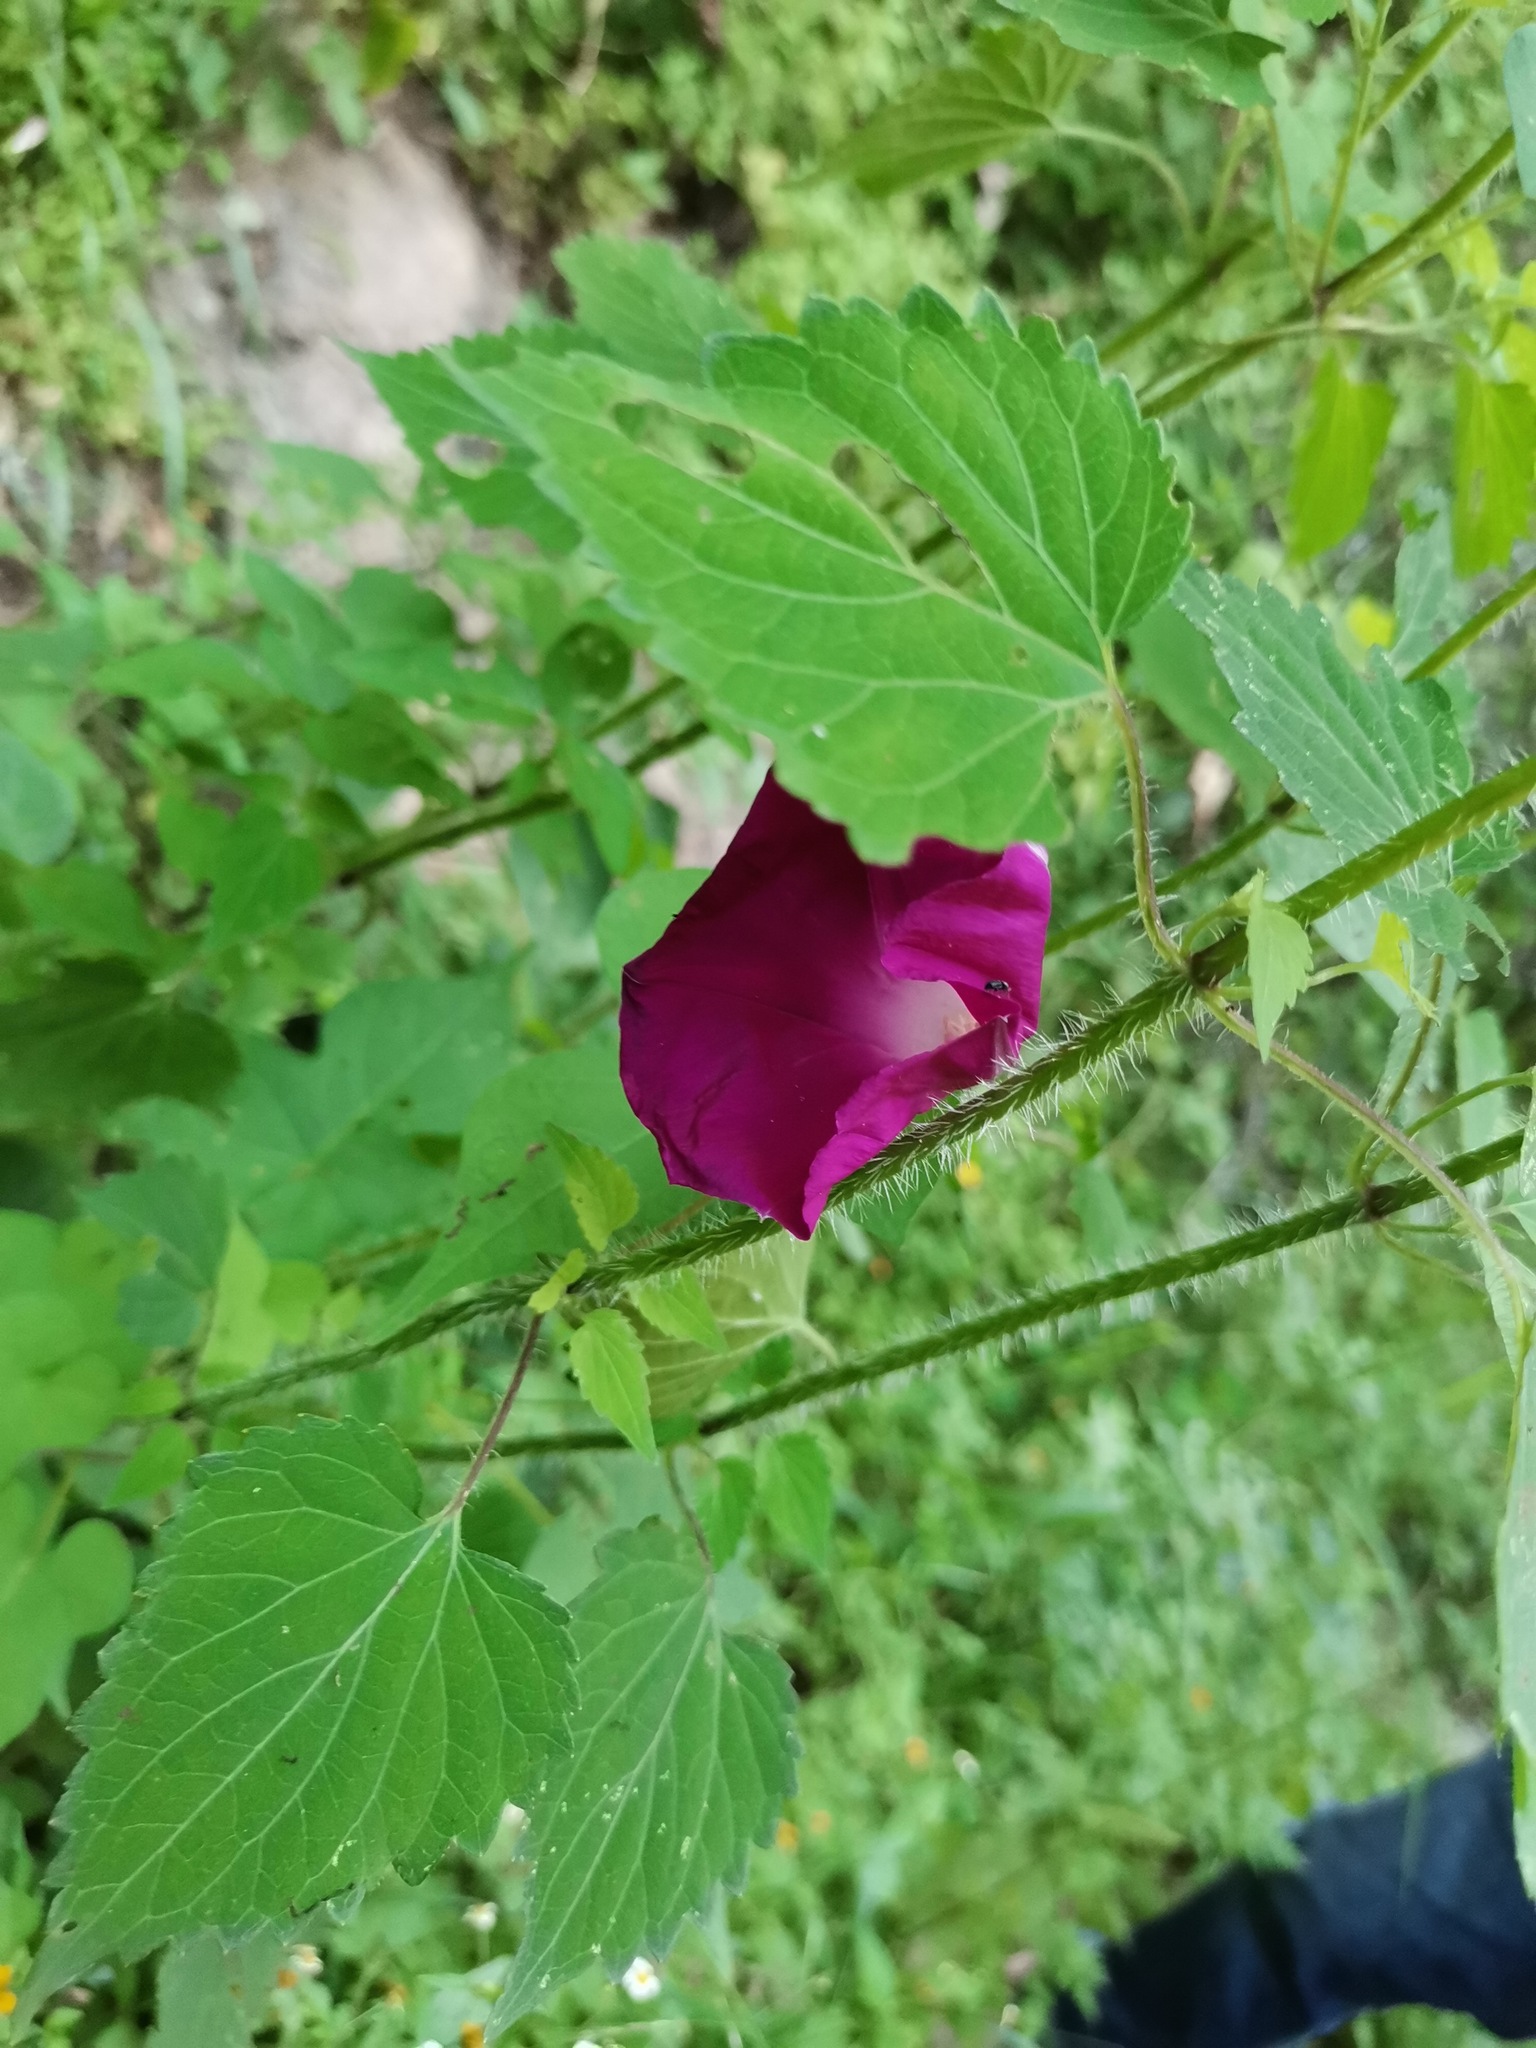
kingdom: Plantae
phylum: Tracheophyta
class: Magnoliopsida
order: Solanales
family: Convolvulaceae
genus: Ipomoea
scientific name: Ipomoea orizabensis
